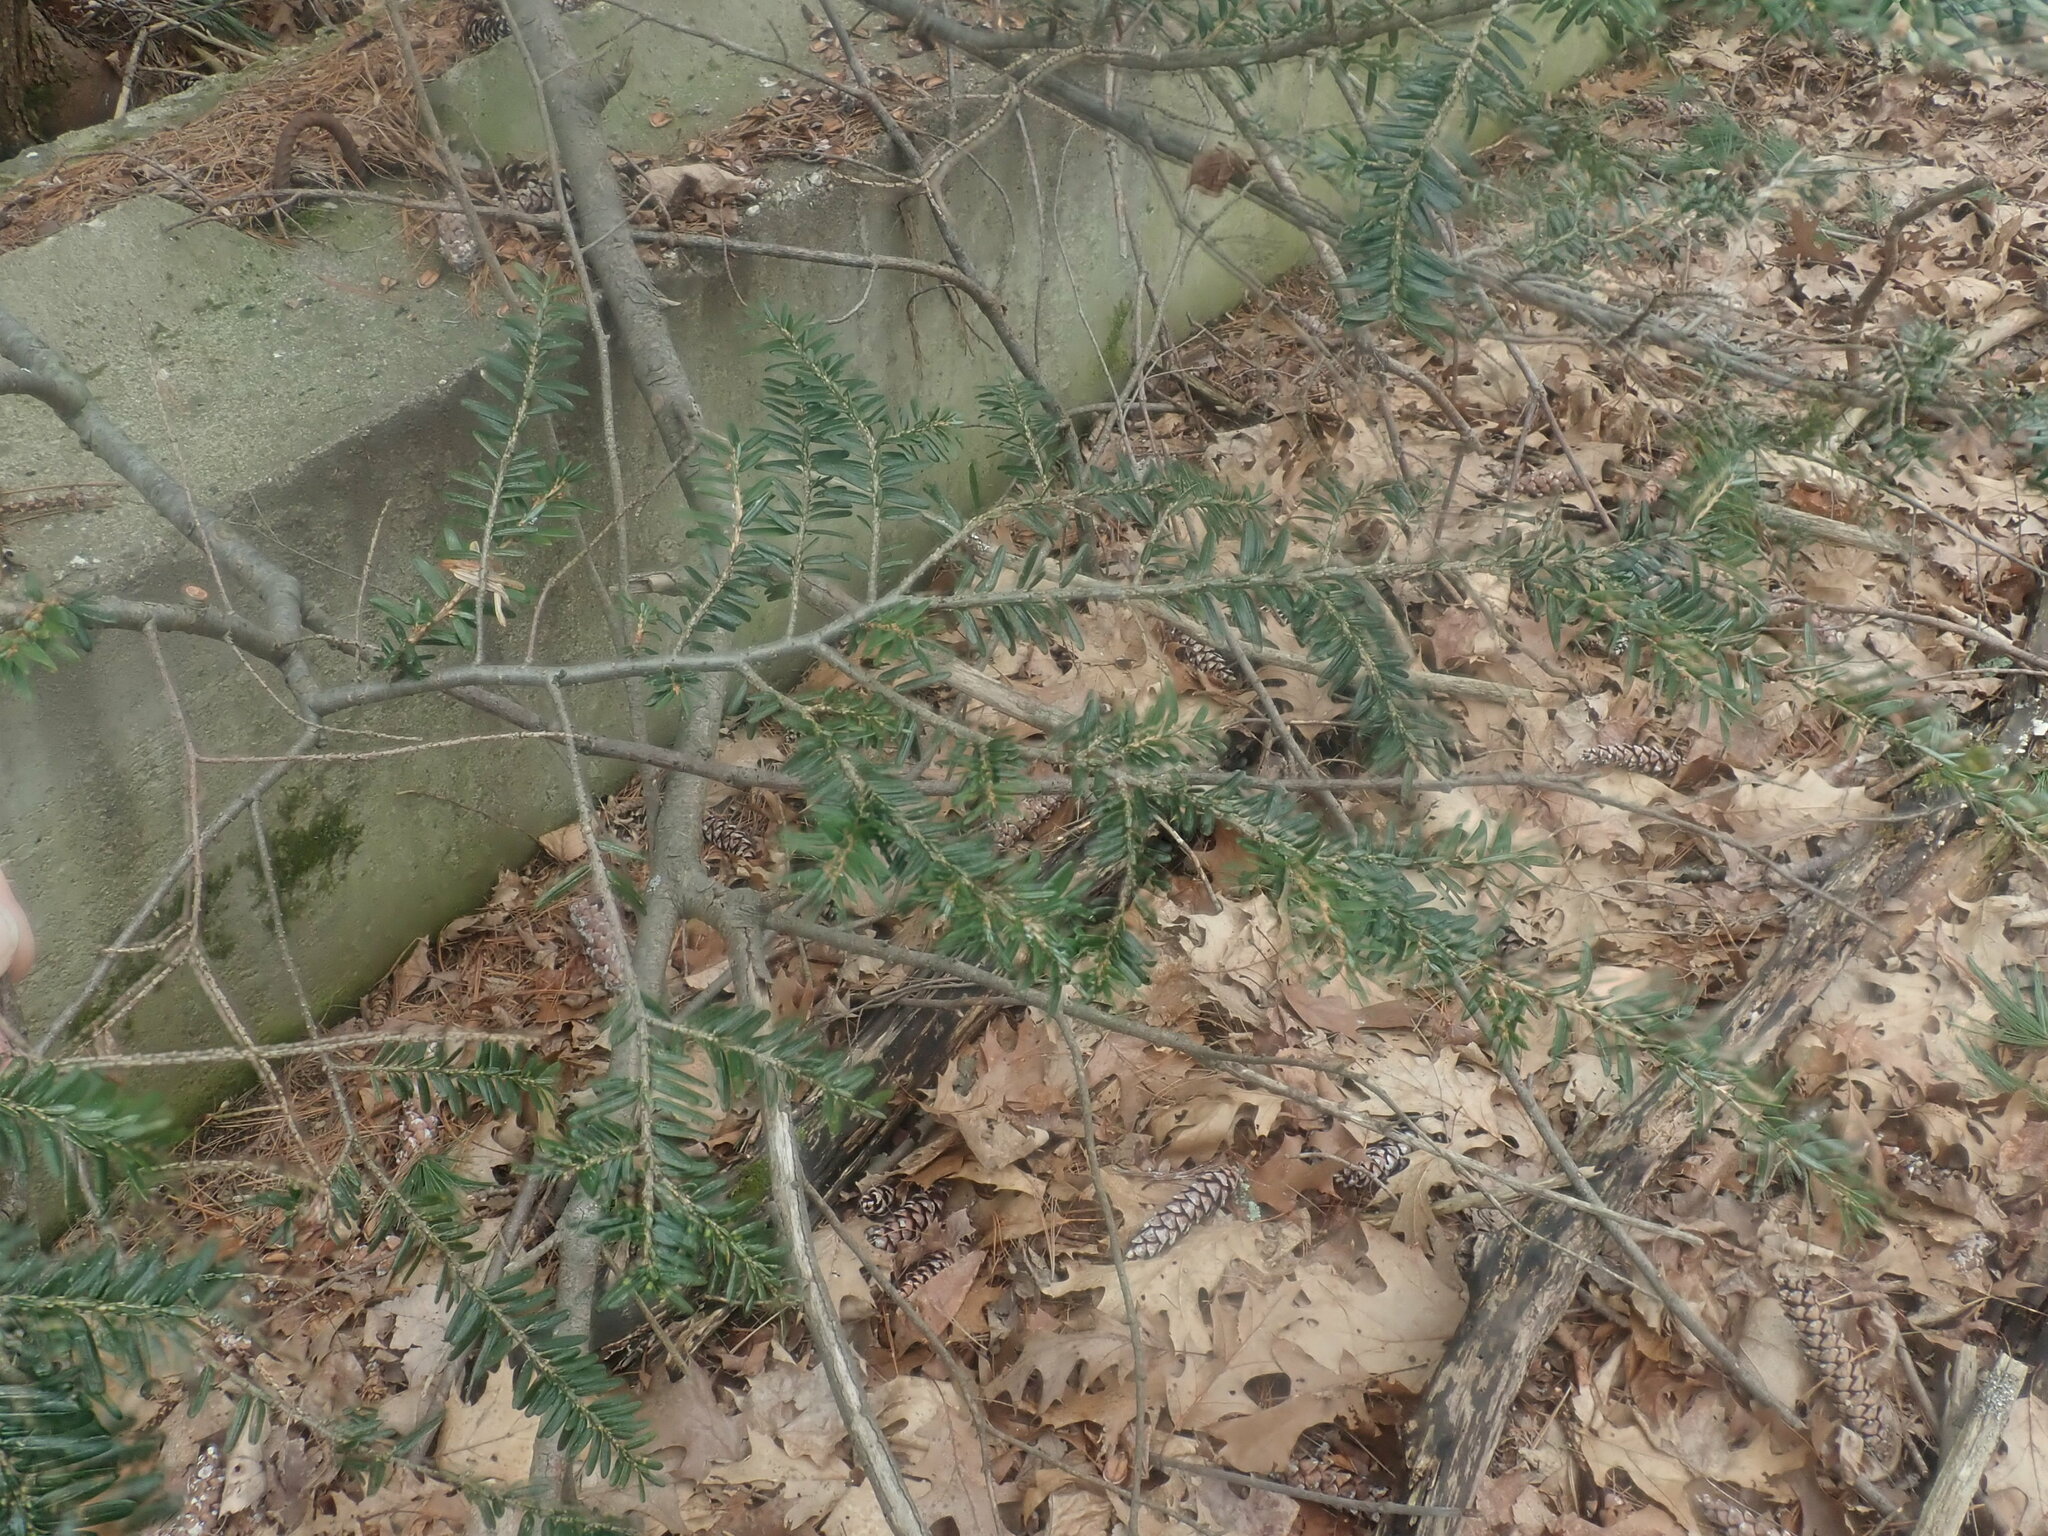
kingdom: Plantae
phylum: Tracheophyta
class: Pinopsida
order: Pinales
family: Pinaceae
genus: Tsuga
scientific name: Tsuga canadensis
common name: Eastern hemlock
